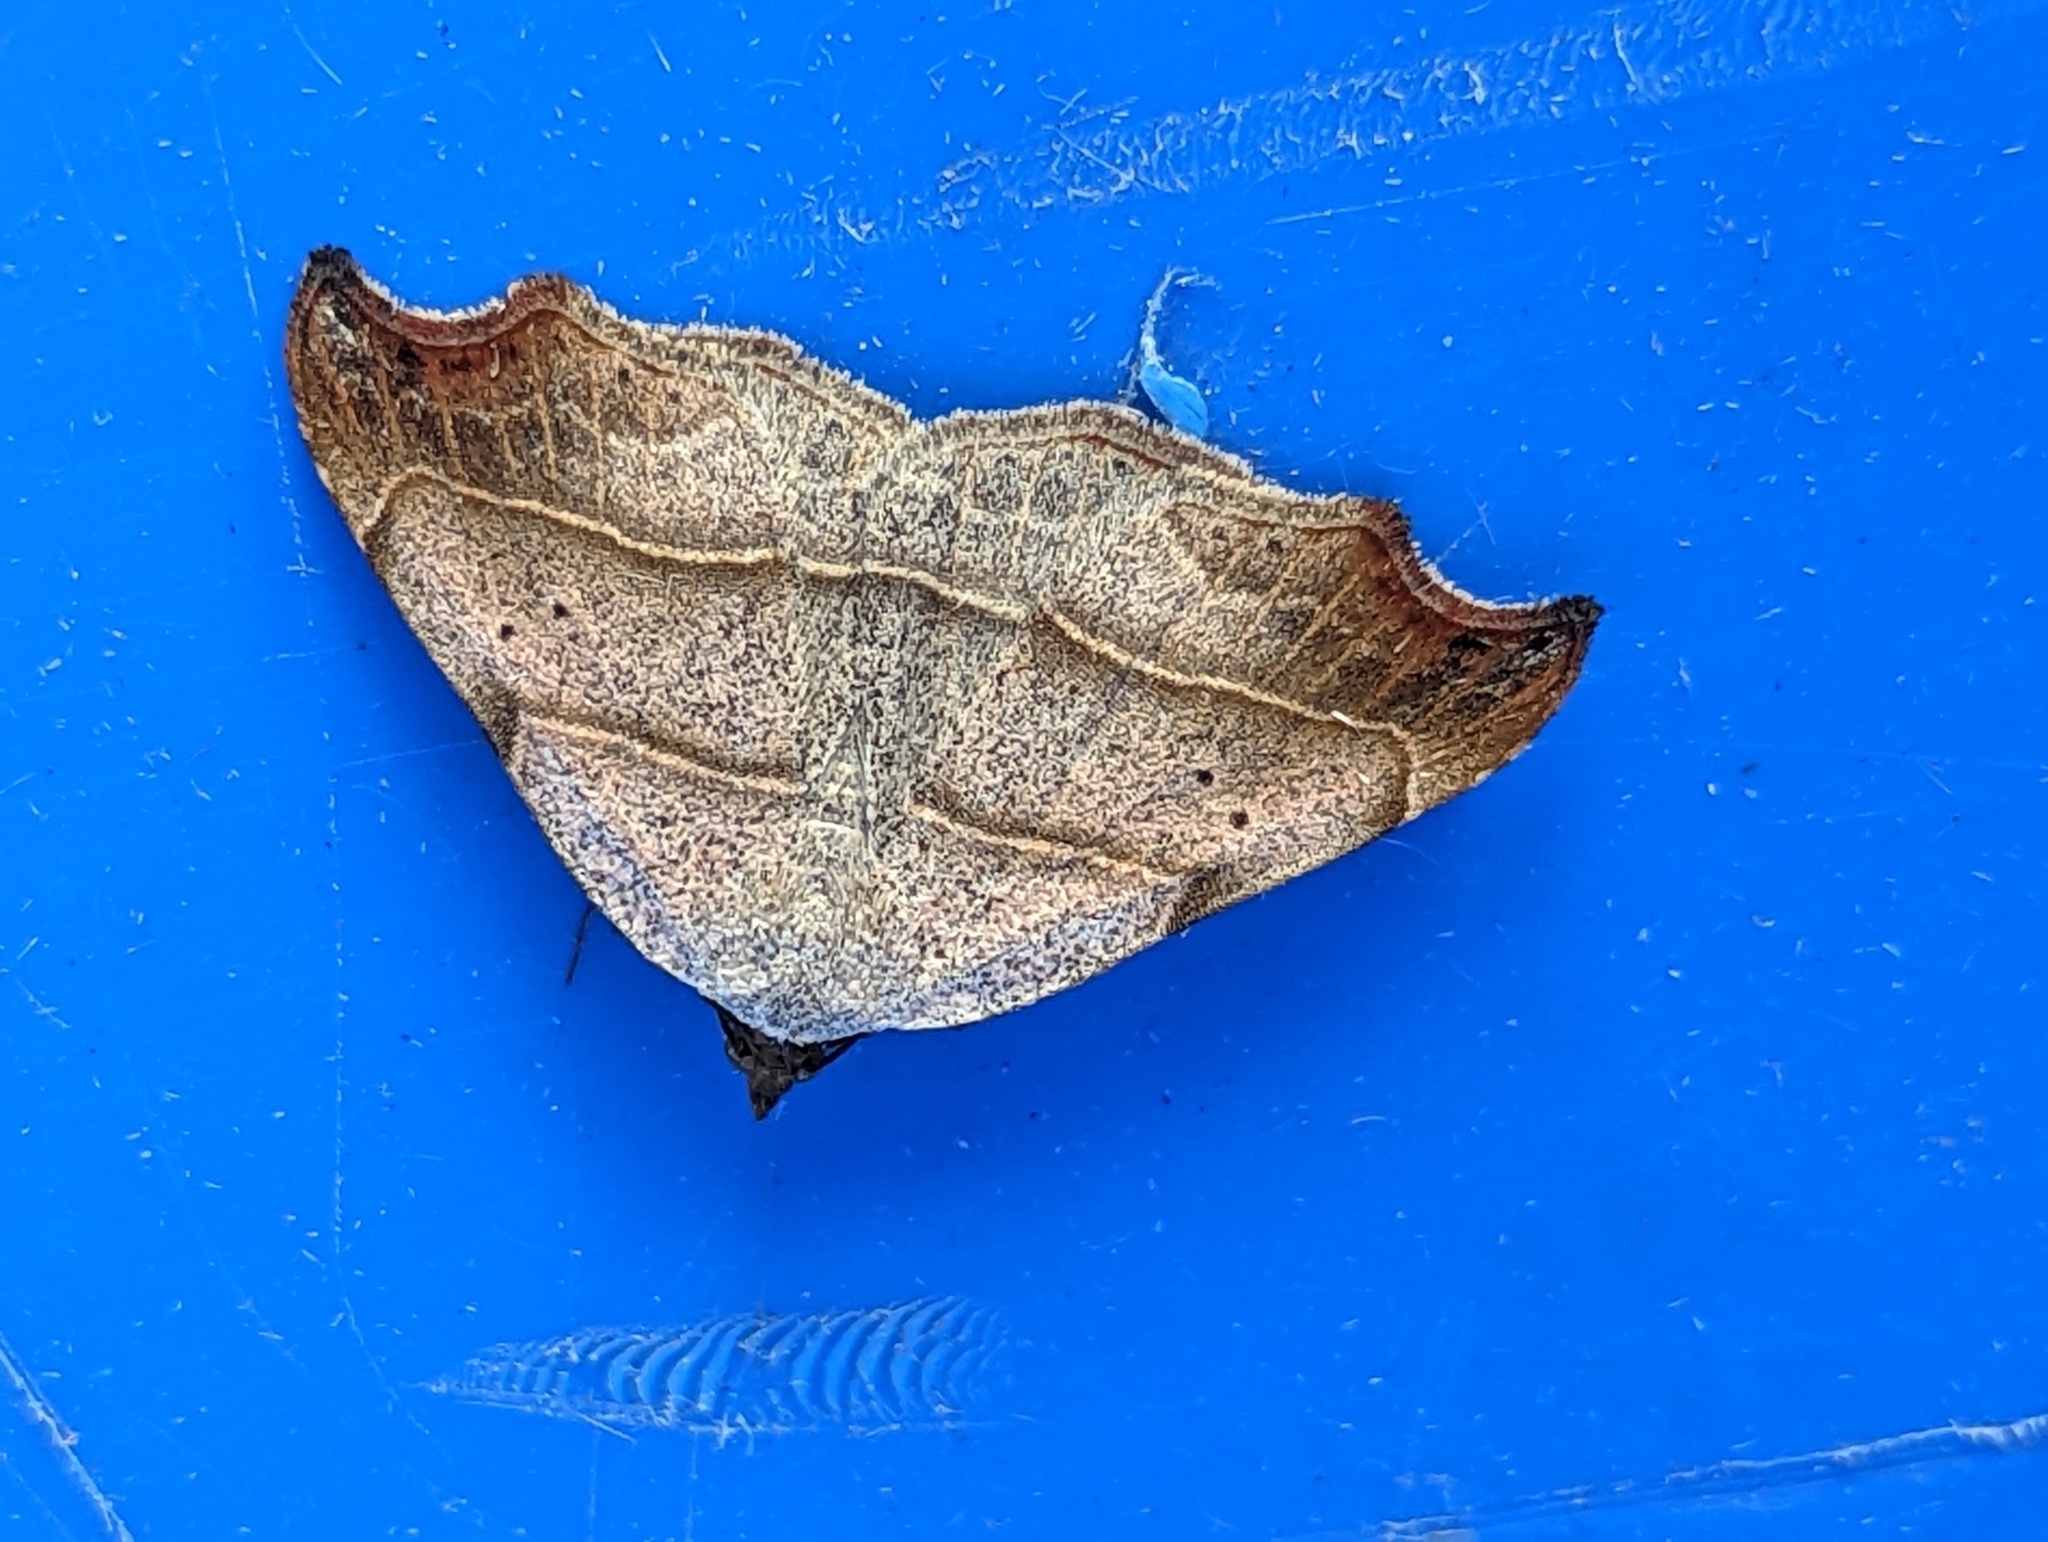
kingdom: Animalia
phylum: Arthropoda
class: Insecta
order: Lepidoptera
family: Erebidae
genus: Laspeyria
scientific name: Laspeyria flexula
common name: Beautiful hook-tip
